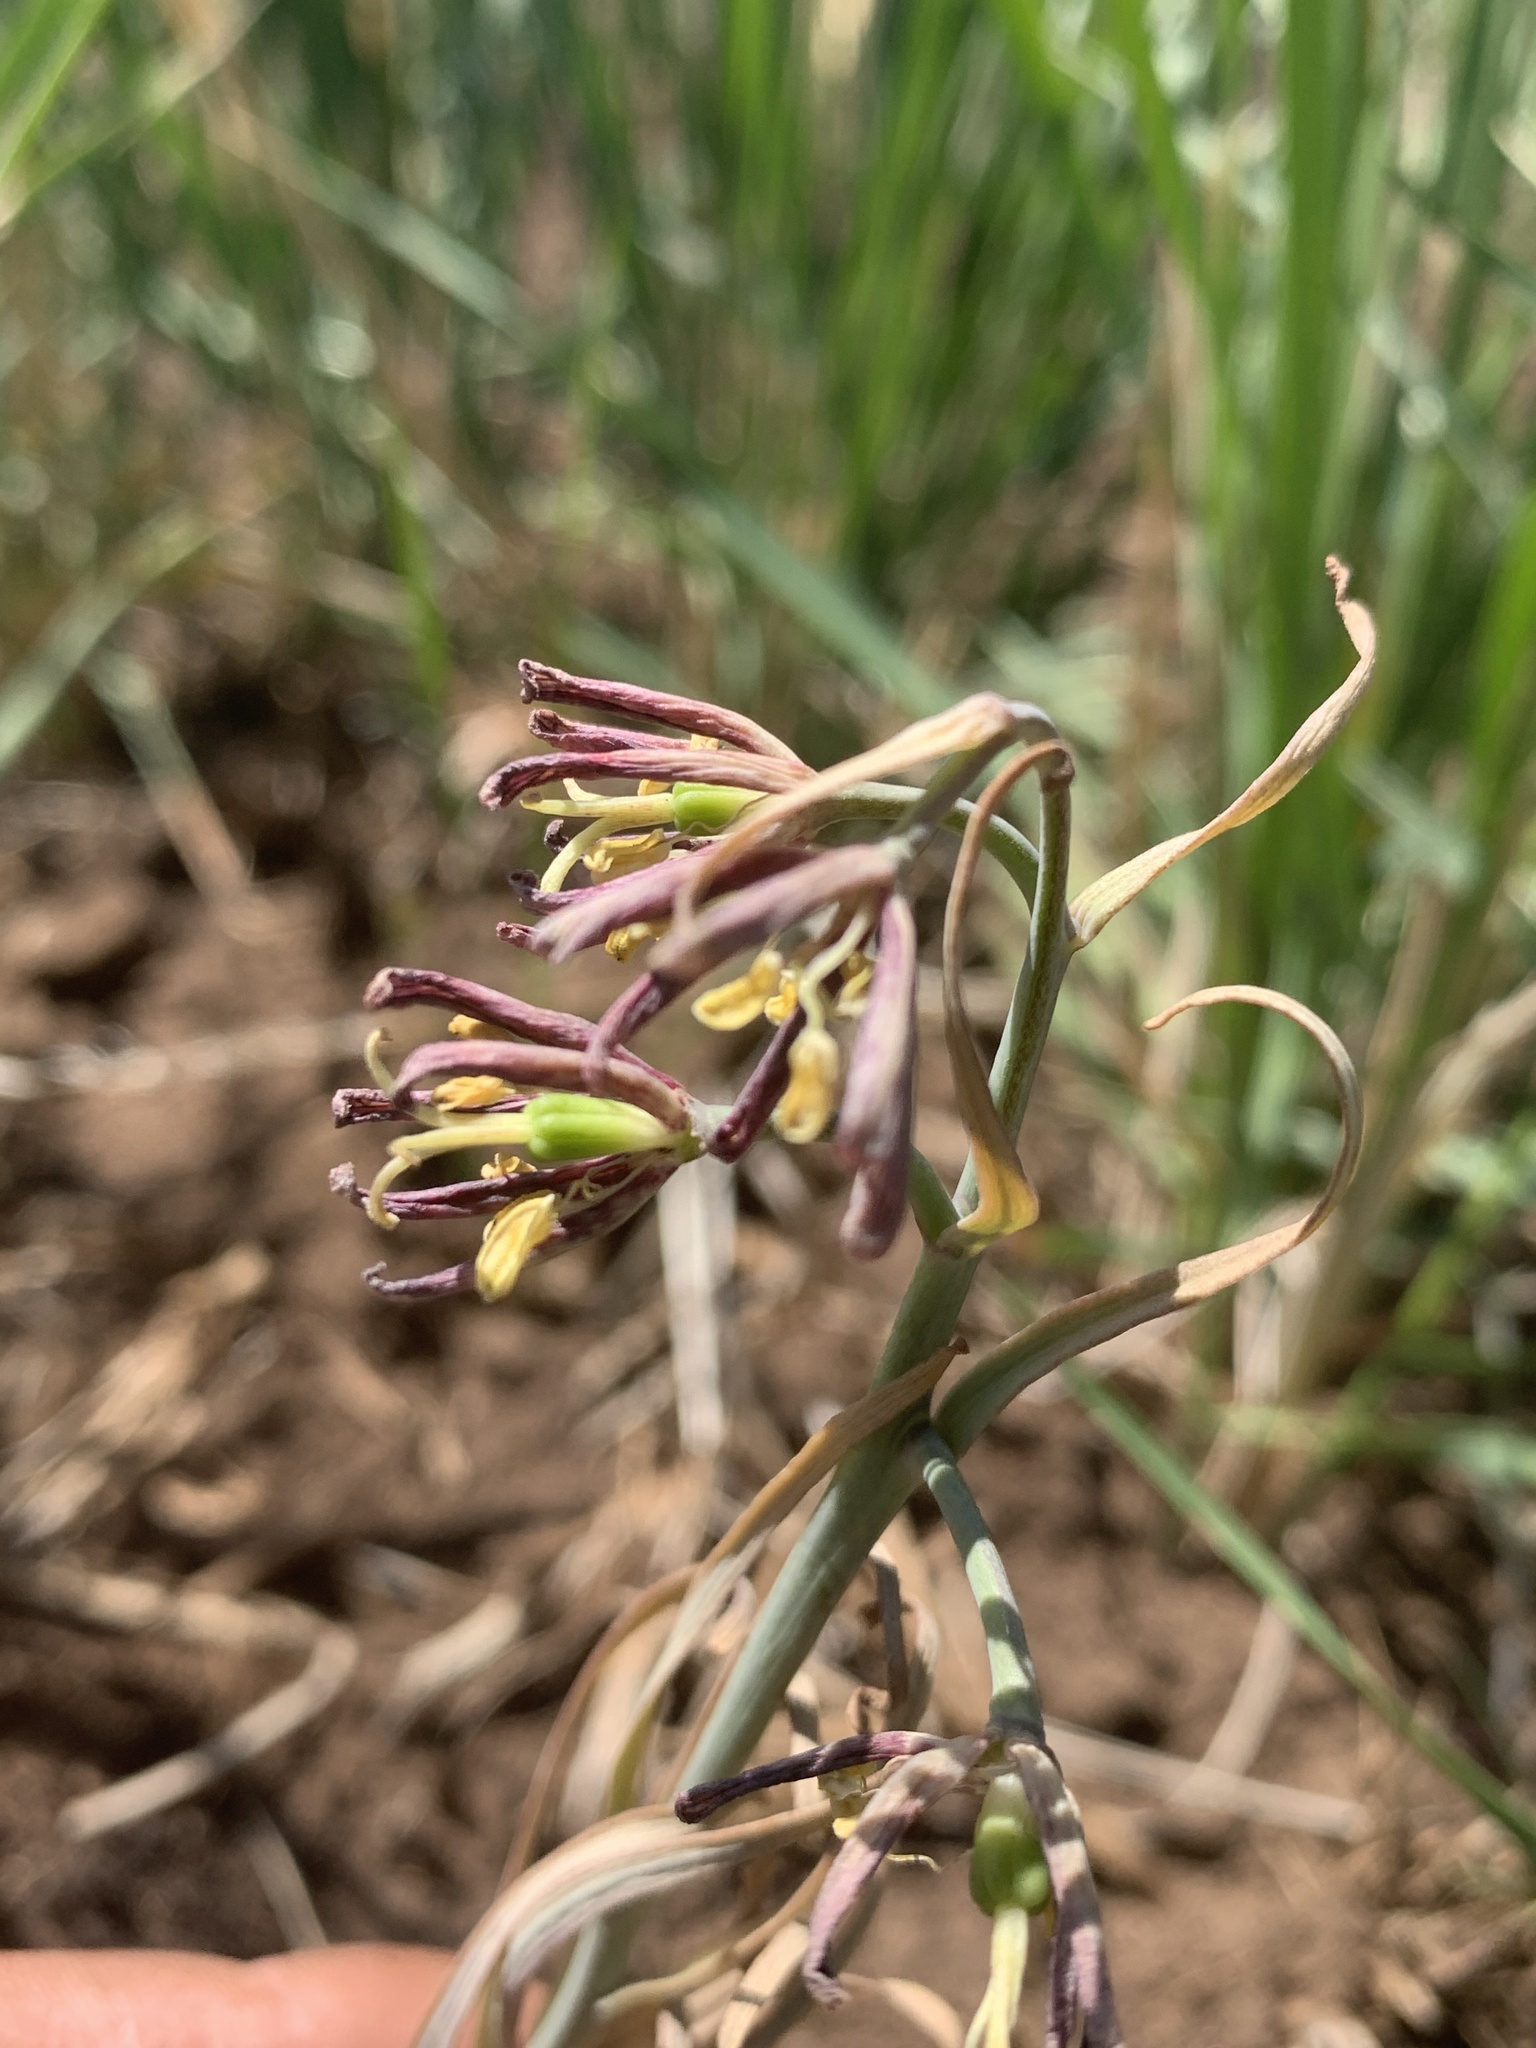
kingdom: Plantae
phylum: Tracheophyta
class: Liliopsida
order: Liliales
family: Liliaceae
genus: Fritillaria
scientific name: Fritillaria atropurpurea
